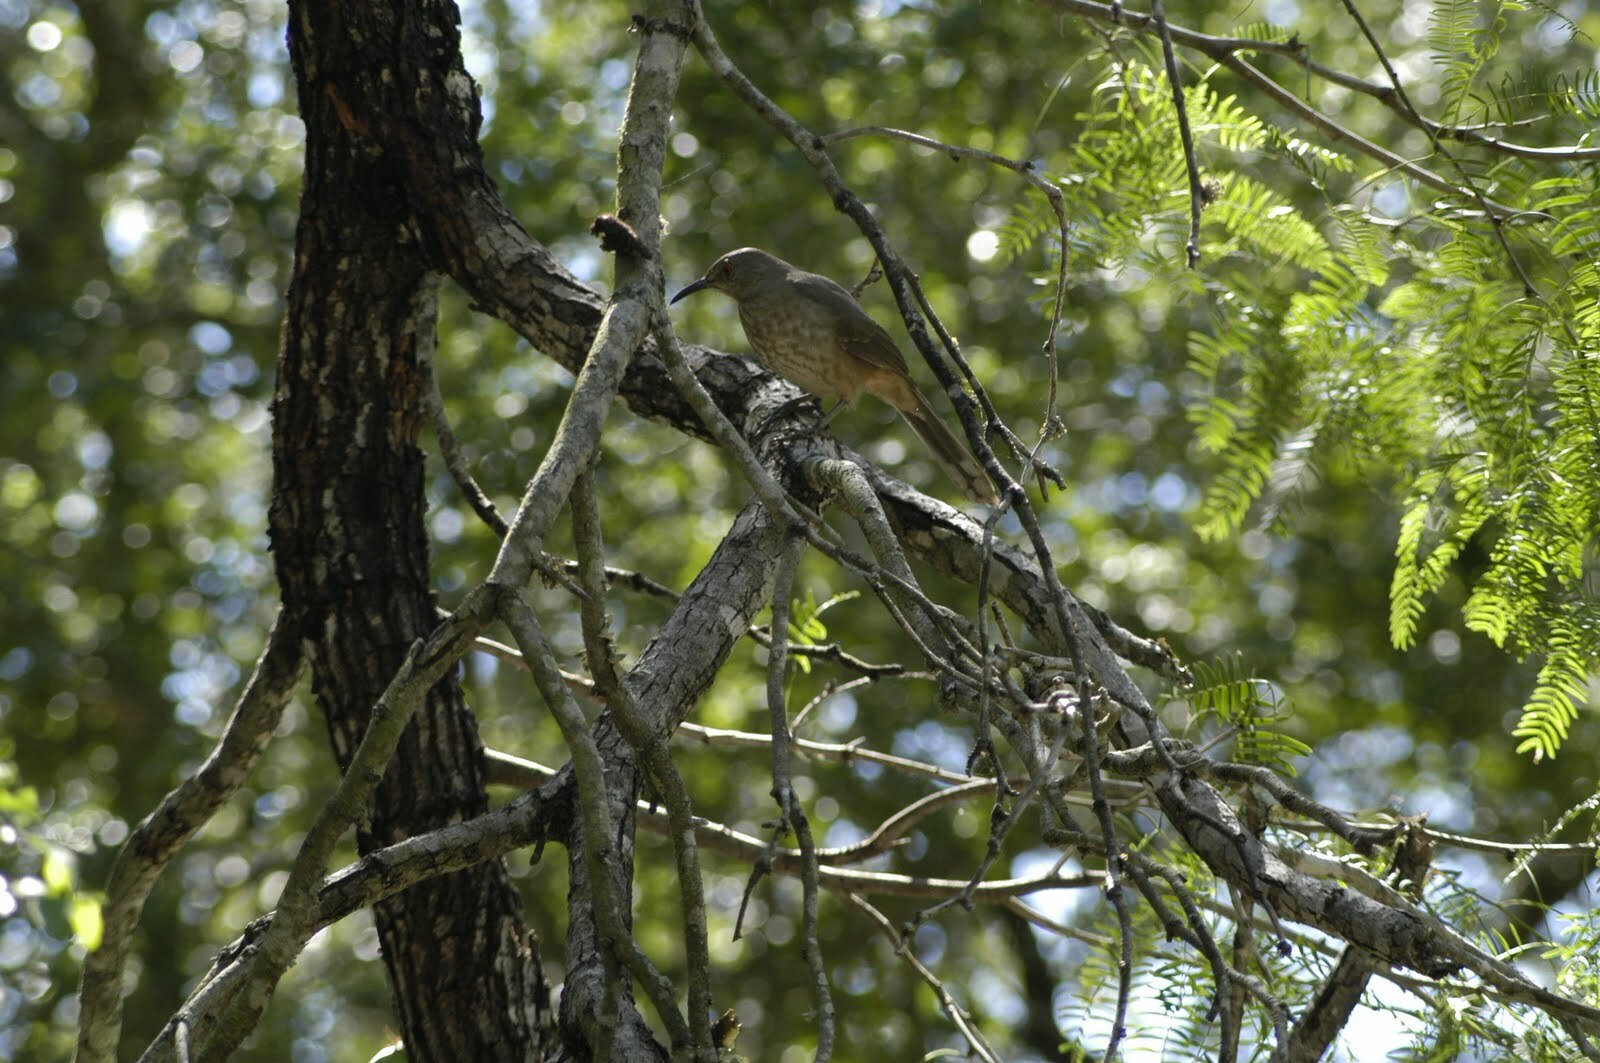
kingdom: Animalia
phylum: Chordata
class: Aves
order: Passeriformes
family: Mimidae
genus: Toxostoma
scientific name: Toxostoma curvirostre
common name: Curve-billed thrasher
